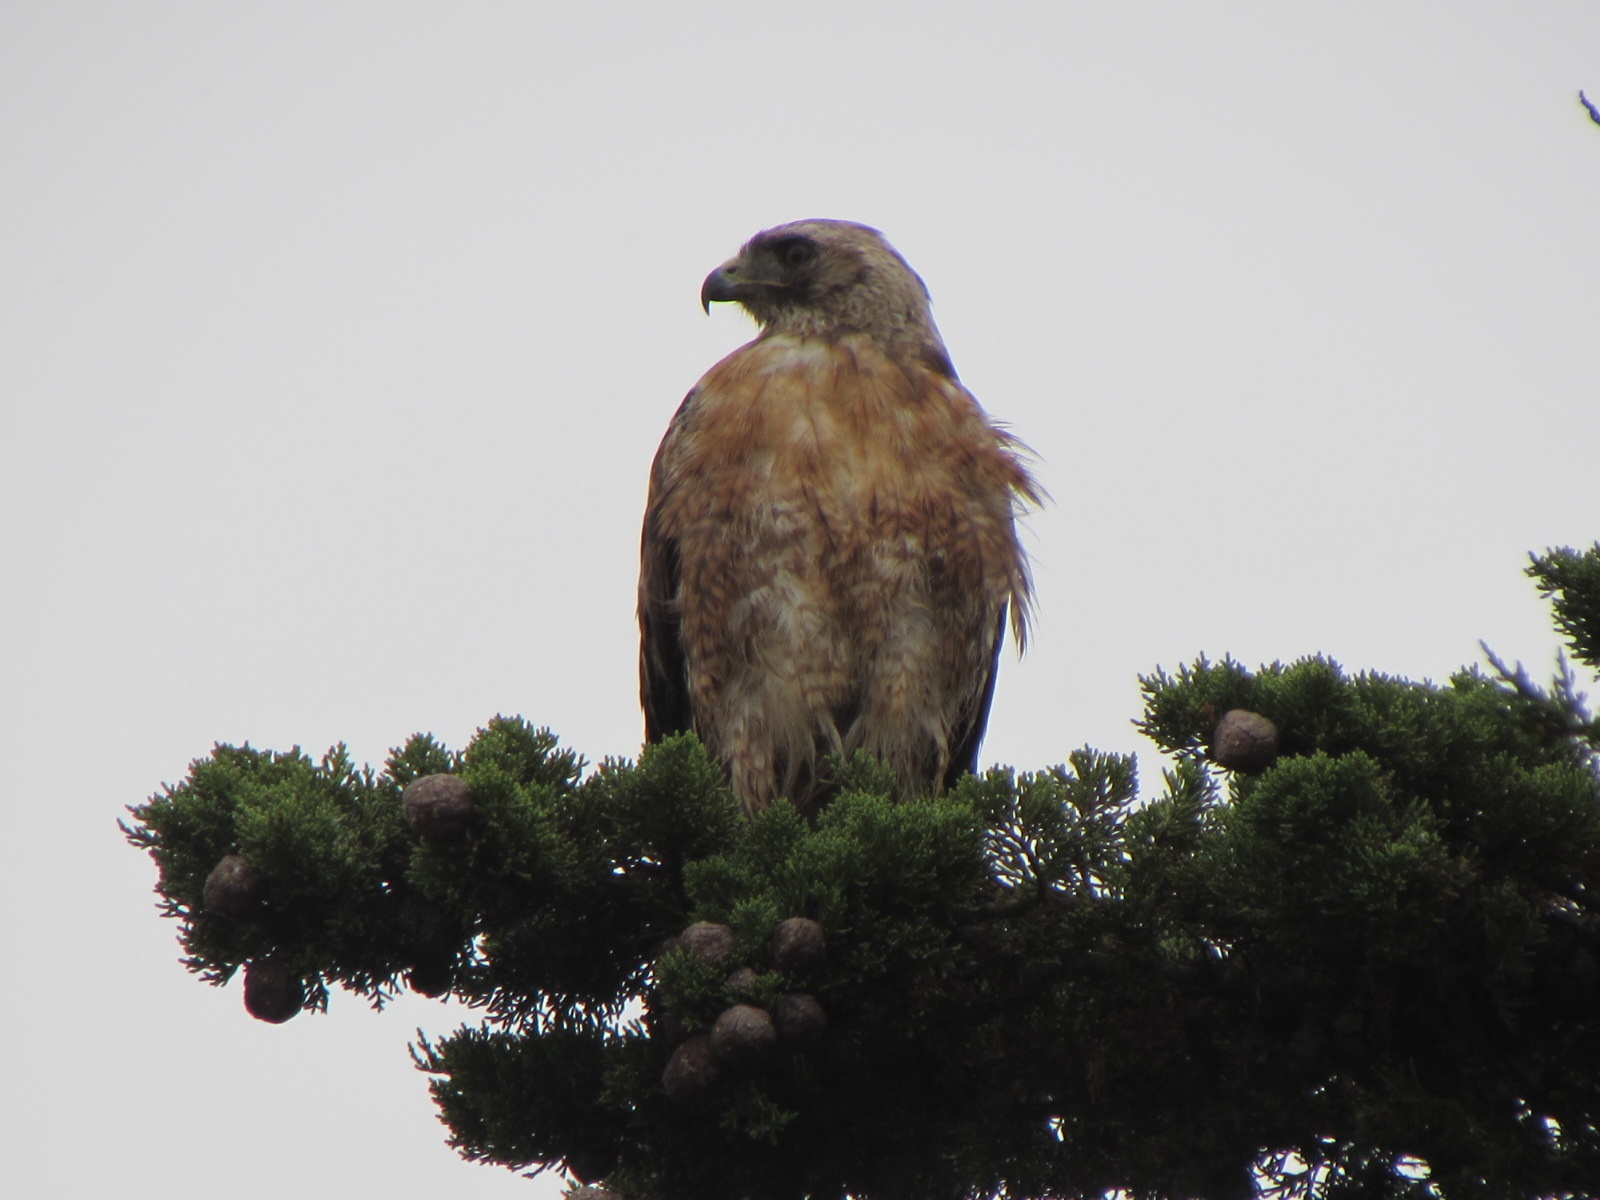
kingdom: Animalia
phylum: Chordata
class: Aves
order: Accipitriformes
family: Accipitridae
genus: Buteo
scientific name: Buteo jamaicensis
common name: Red-tailed hawk
